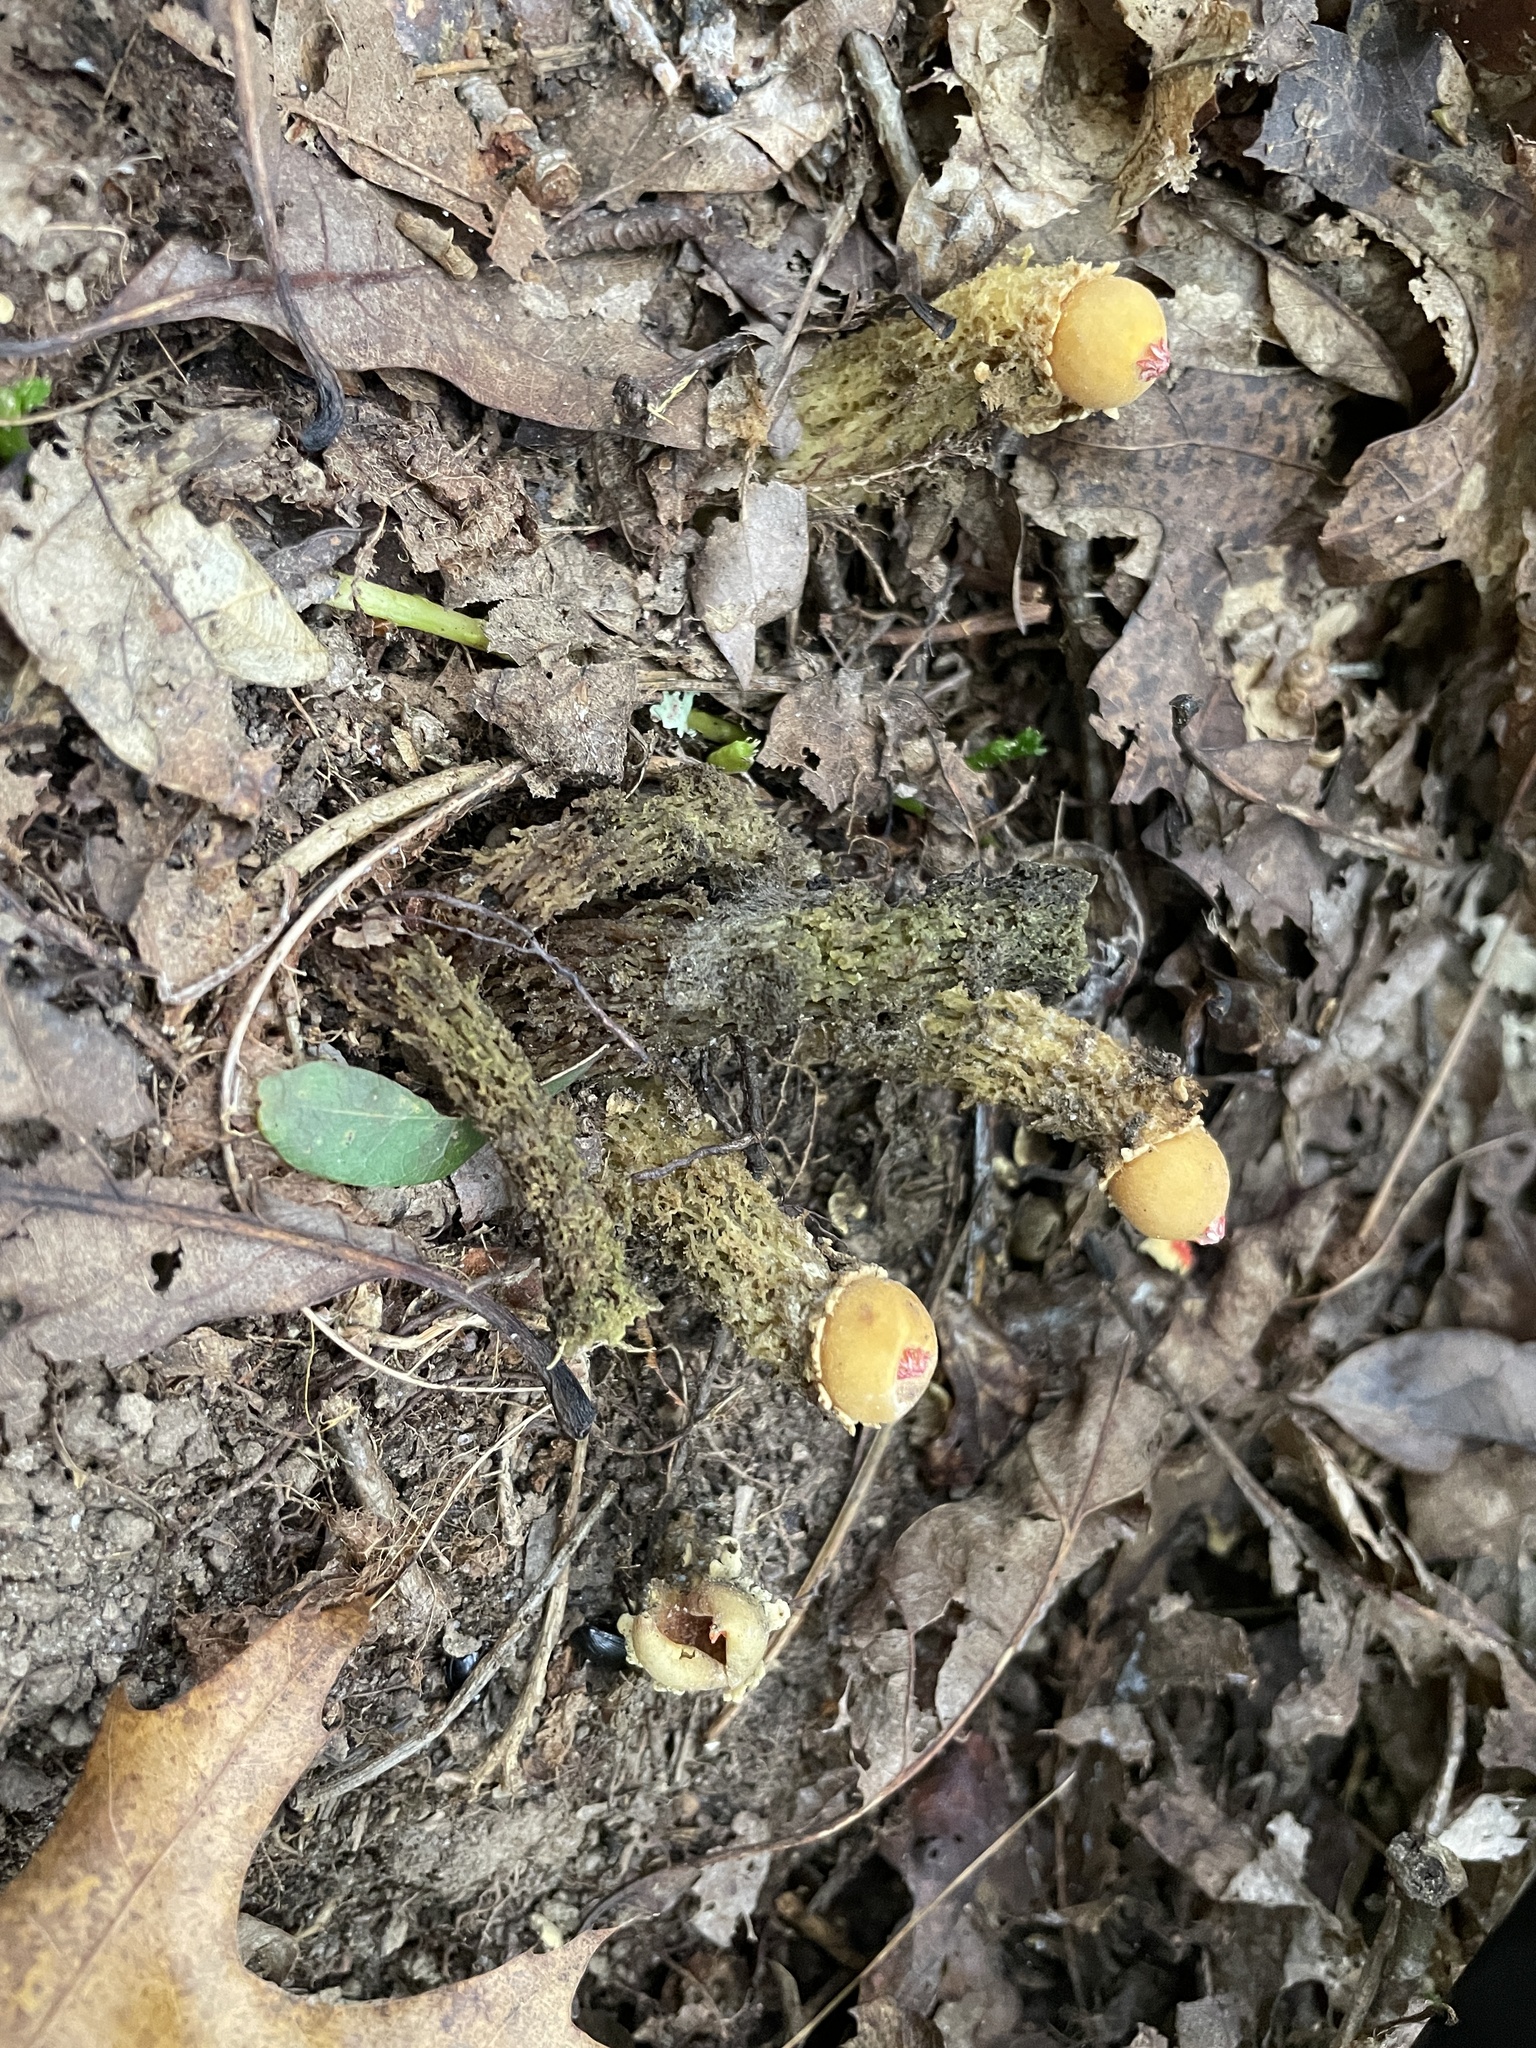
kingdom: Fungi
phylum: Basidiomycota
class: Agaricomycetes
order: Boletales
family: Calostomataceae
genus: Calostoma
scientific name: Calostoma lutescens
